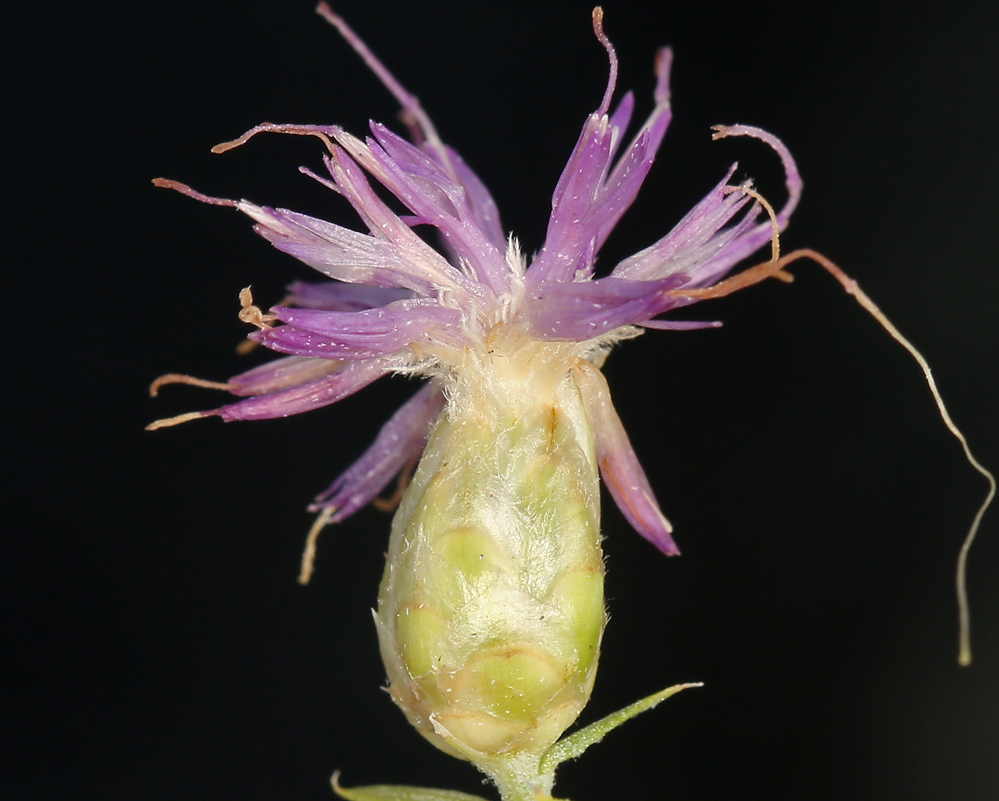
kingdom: Plantae
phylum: Tracheophyta
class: Magnoliopsida
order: Asterales
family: Asteraceae
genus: Leuzea
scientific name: Leuzea repens
